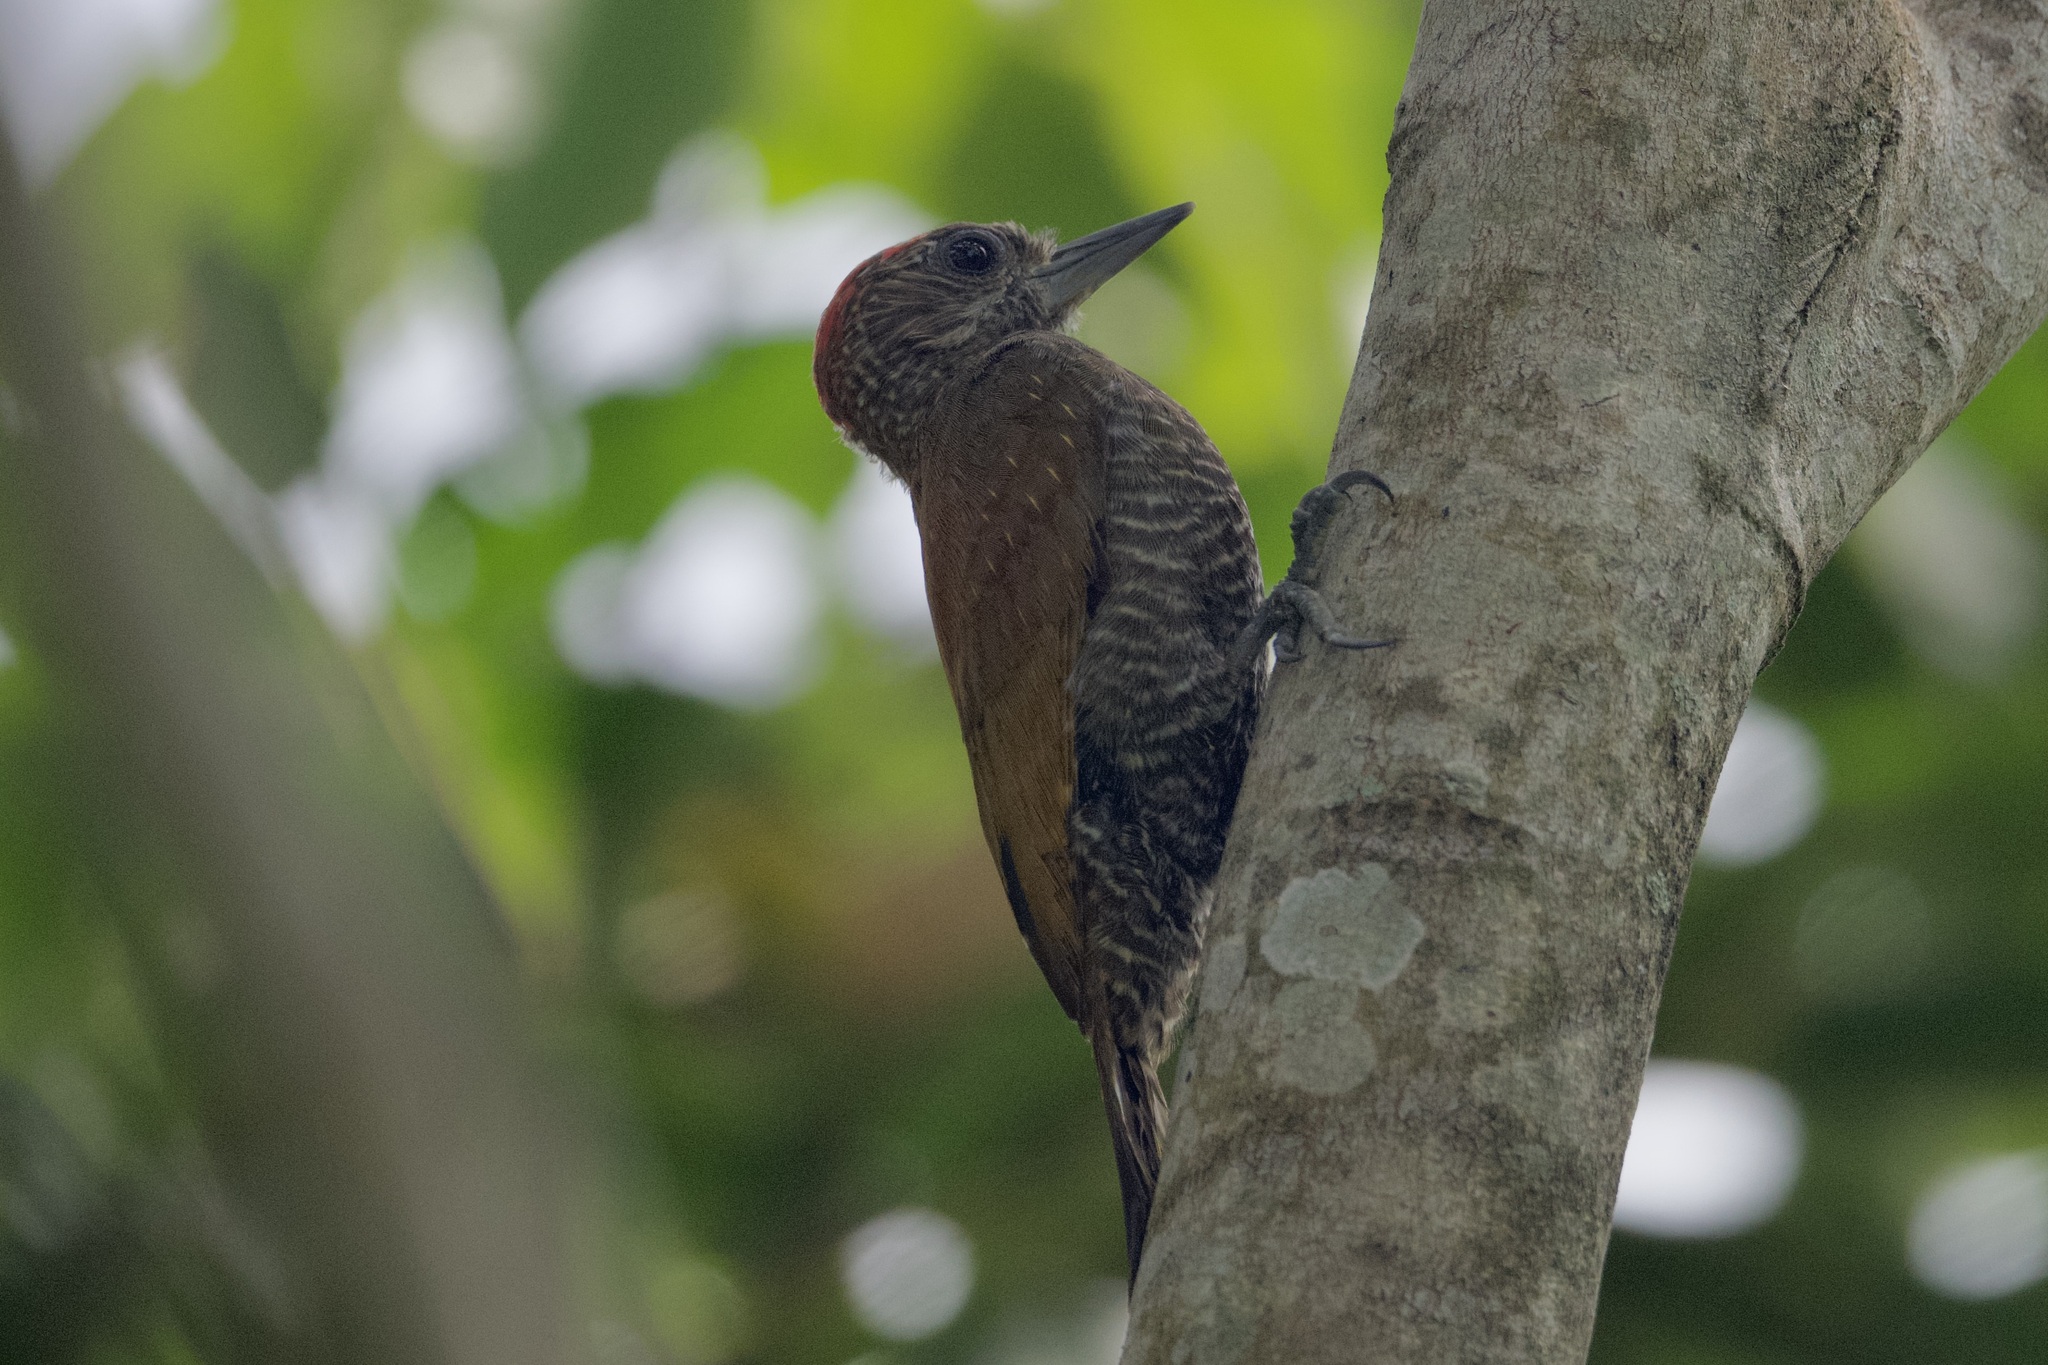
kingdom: Animalia
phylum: Chordata
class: Aves
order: Piciformes
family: Picidae
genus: Veniliornis
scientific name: Veniliornis passerinus
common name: Little woodpecker
